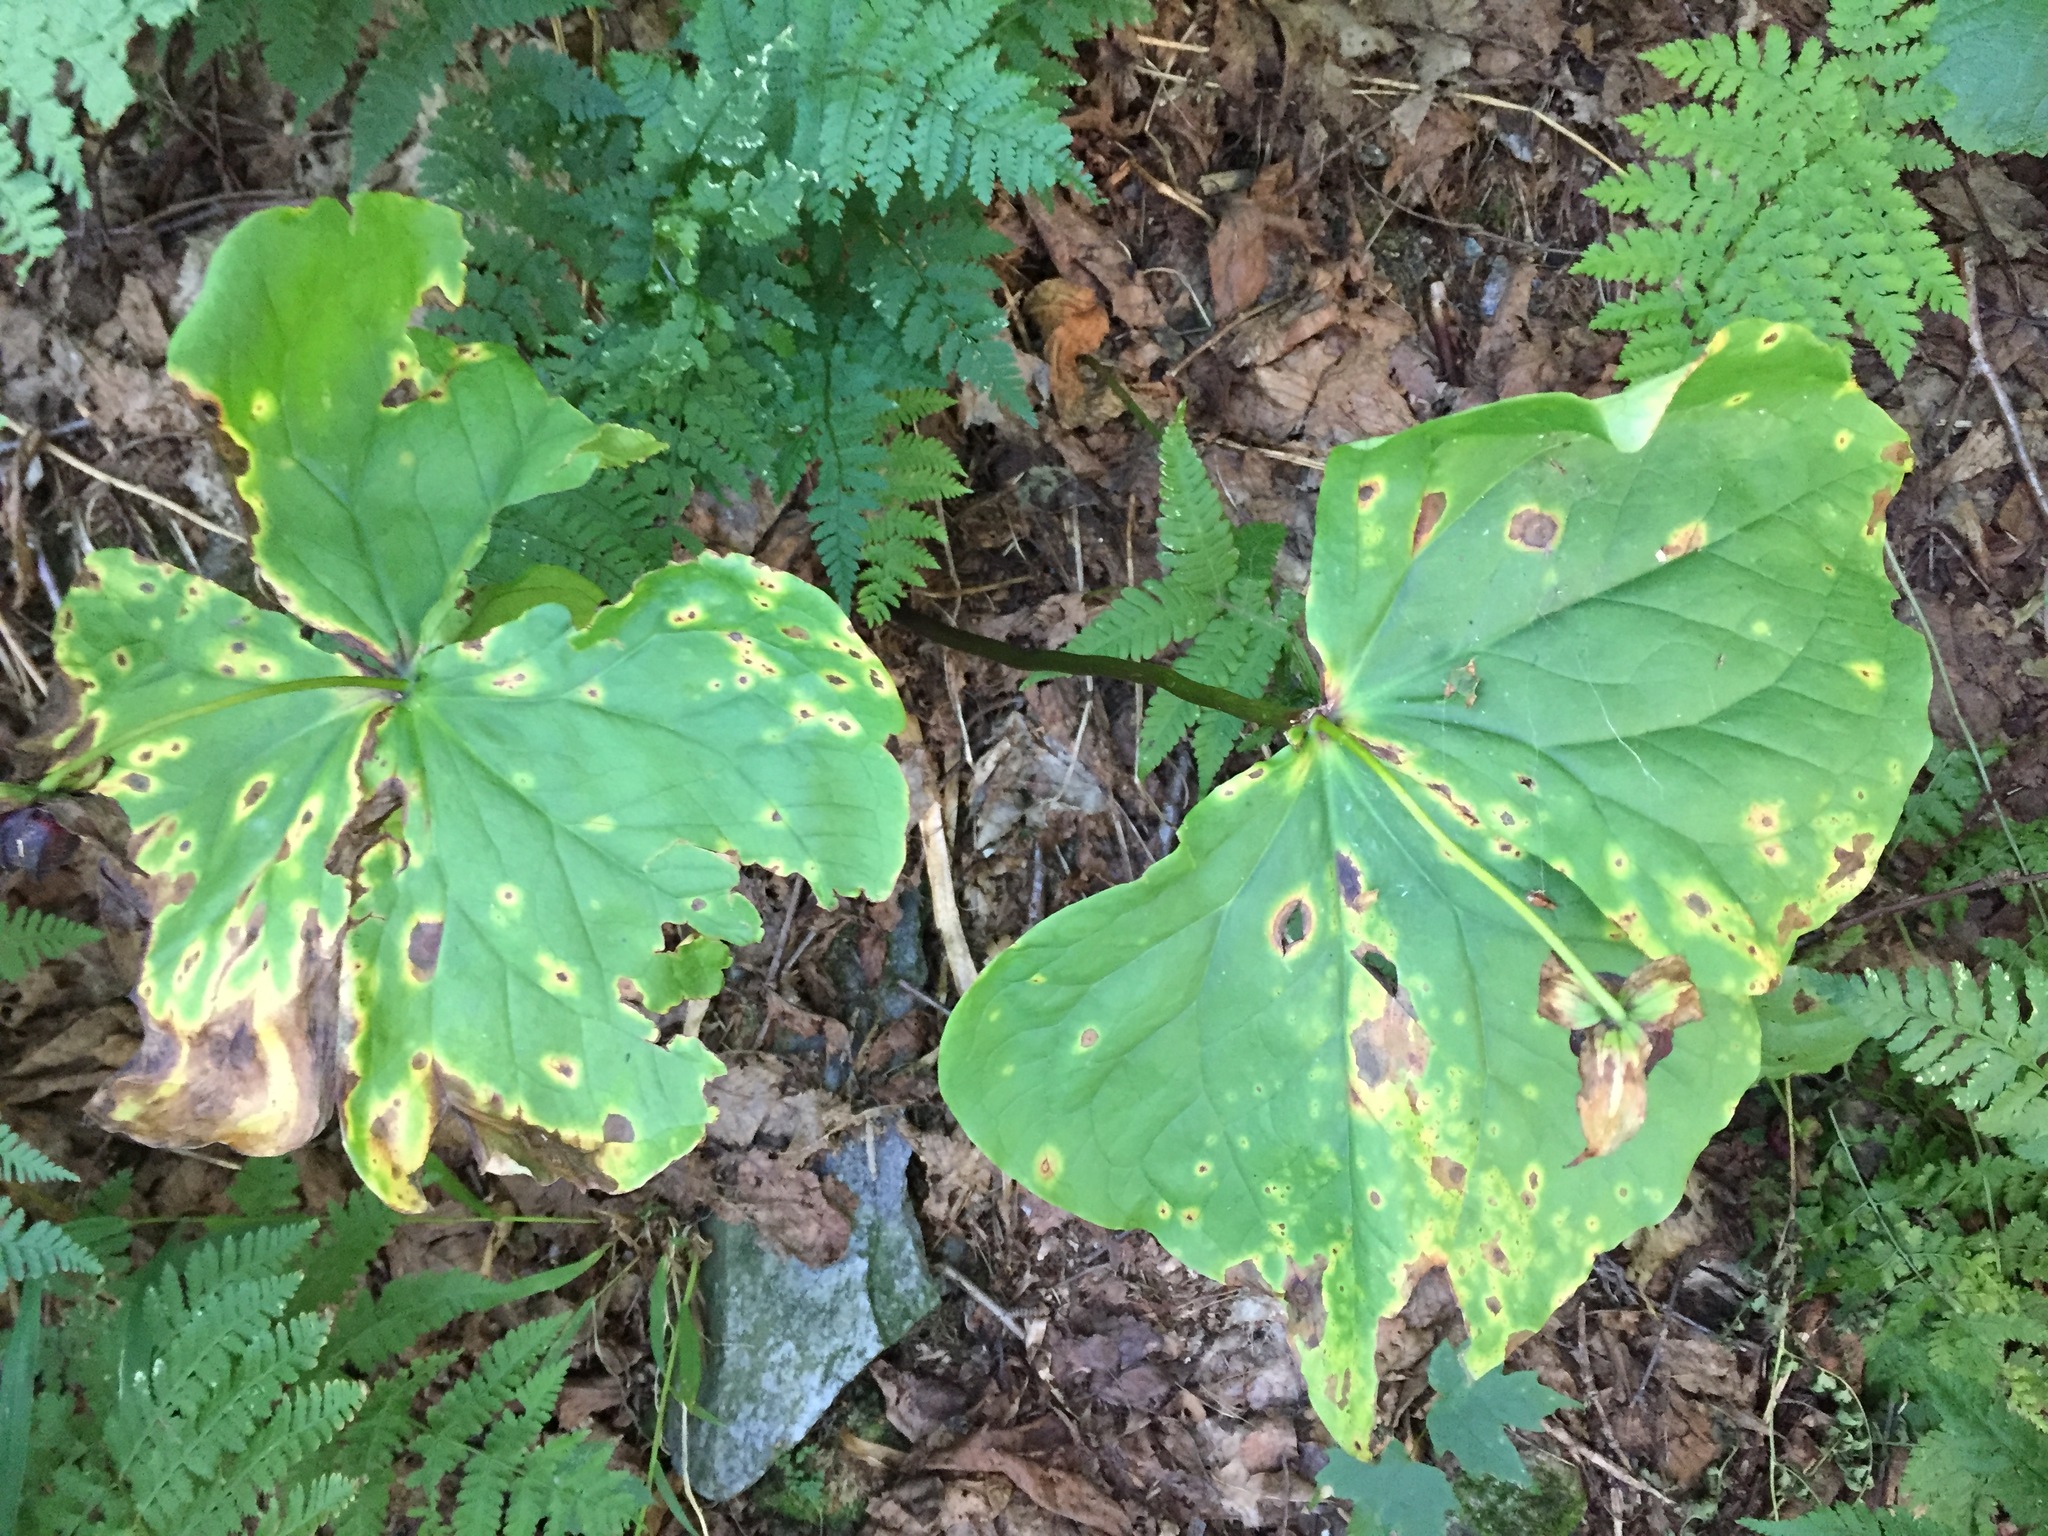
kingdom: Plantae
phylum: Tracheophyta
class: Liliopsida
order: Liliales
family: Melanthiaceae
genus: Trillium
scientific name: Trillium erectum
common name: Purple trillium
